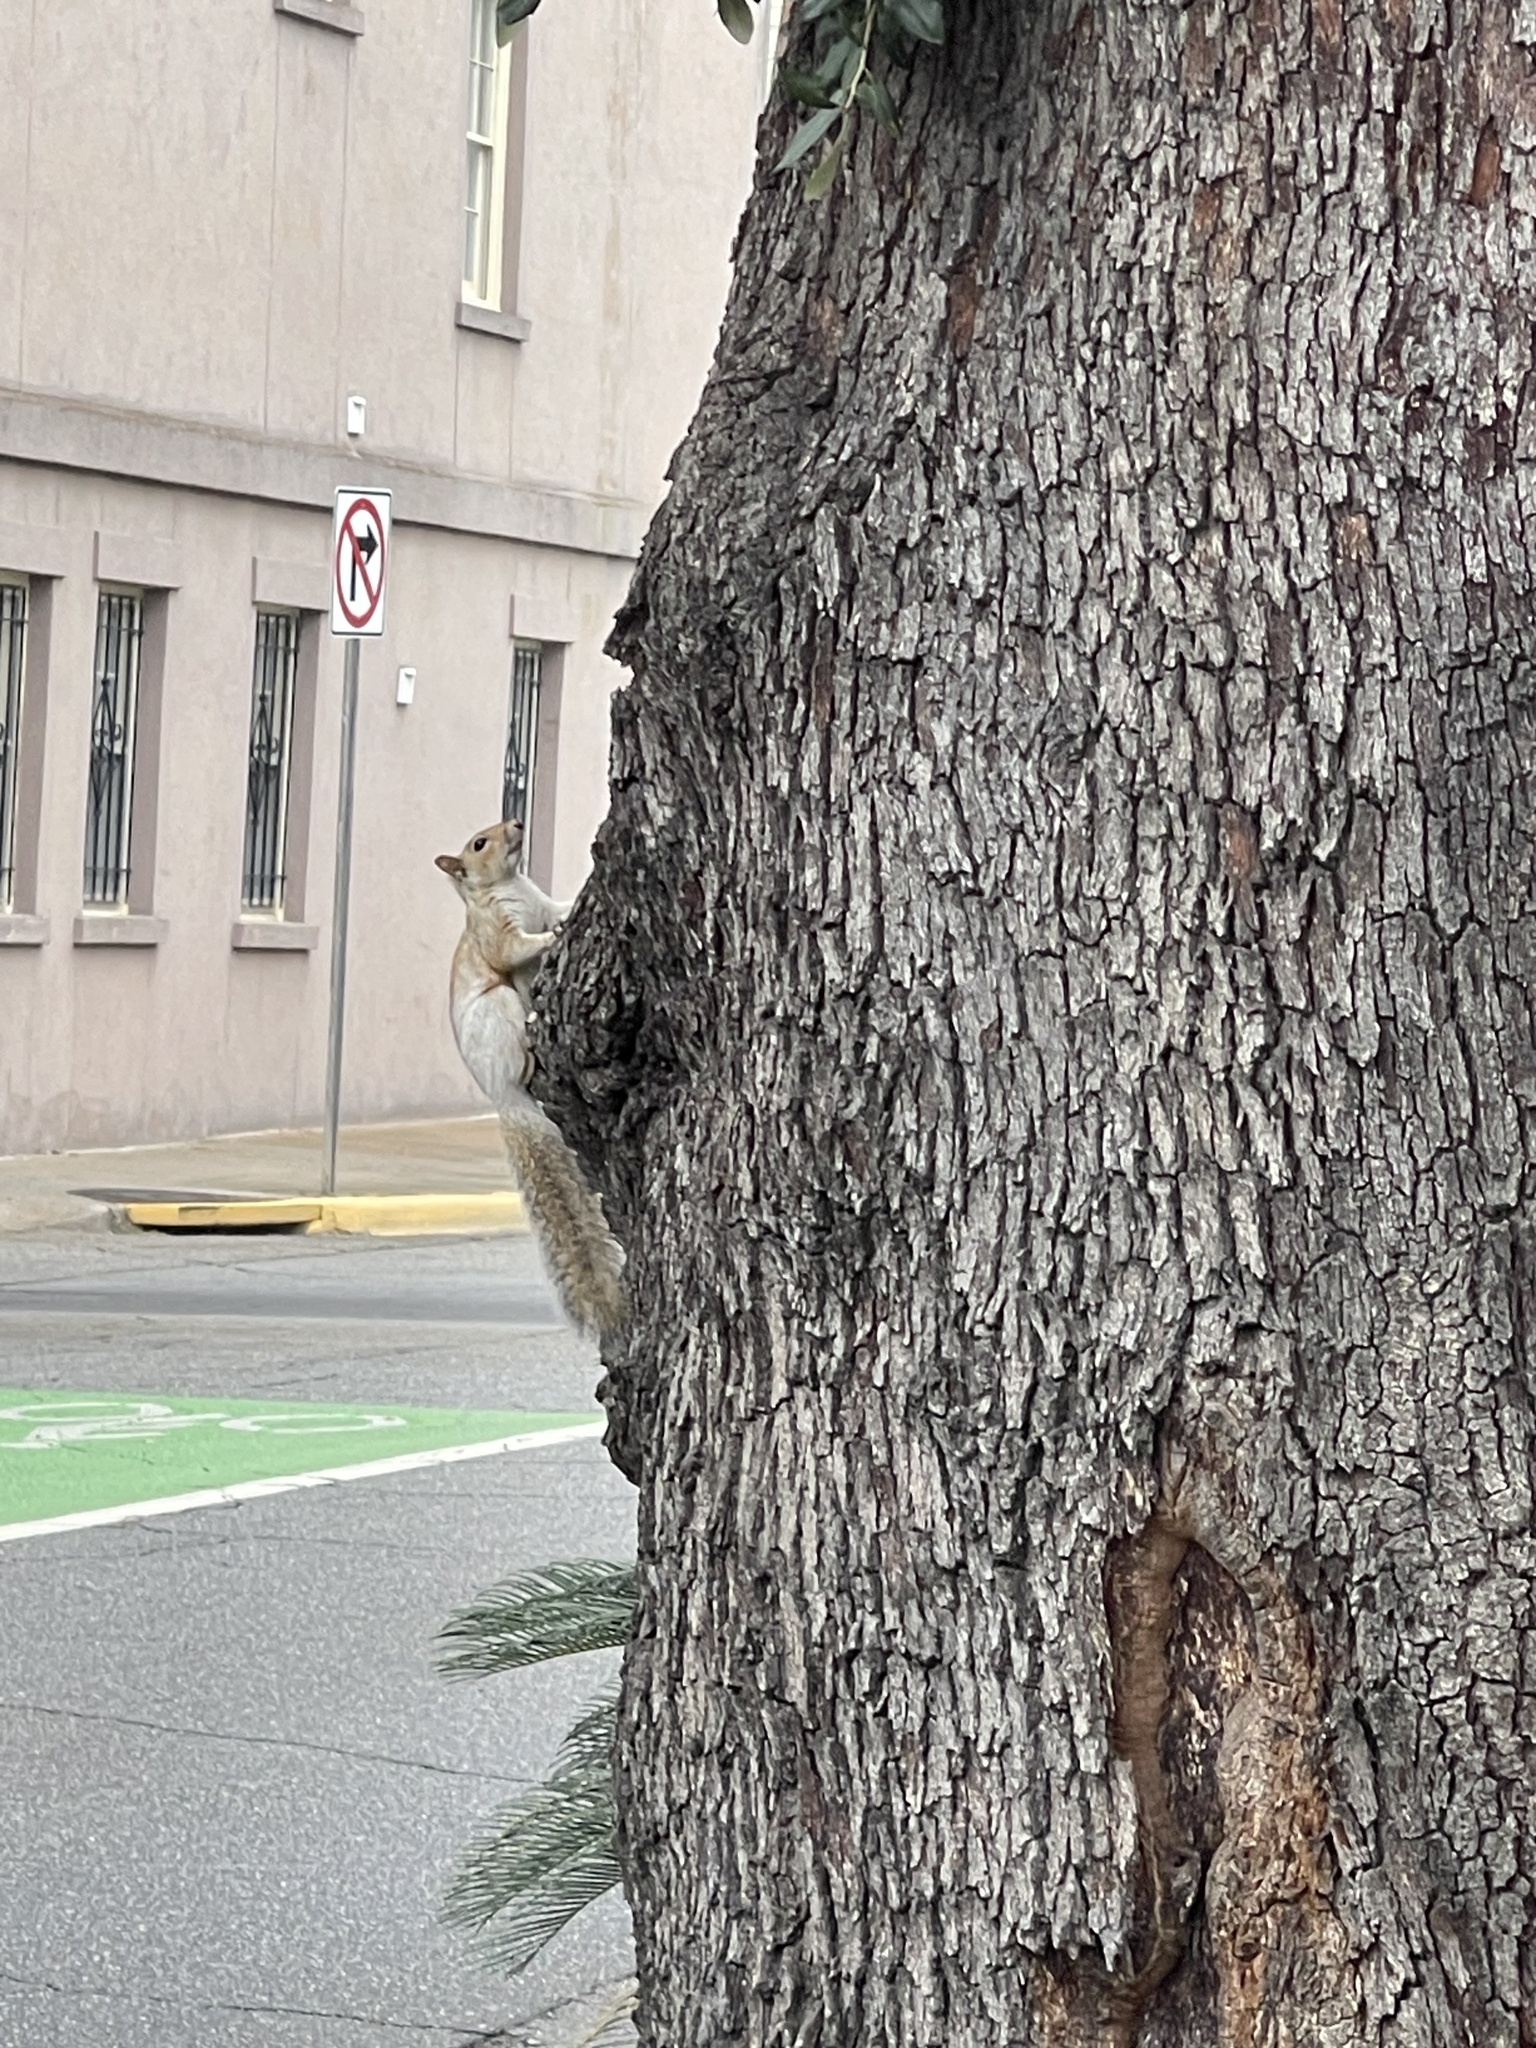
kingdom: Animalia
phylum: Chordata
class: Mammalia
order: Rodentia
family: Sciuridae
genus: Sciurus
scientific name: Sciurus carolinensis
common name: Eastern gray squirrel
